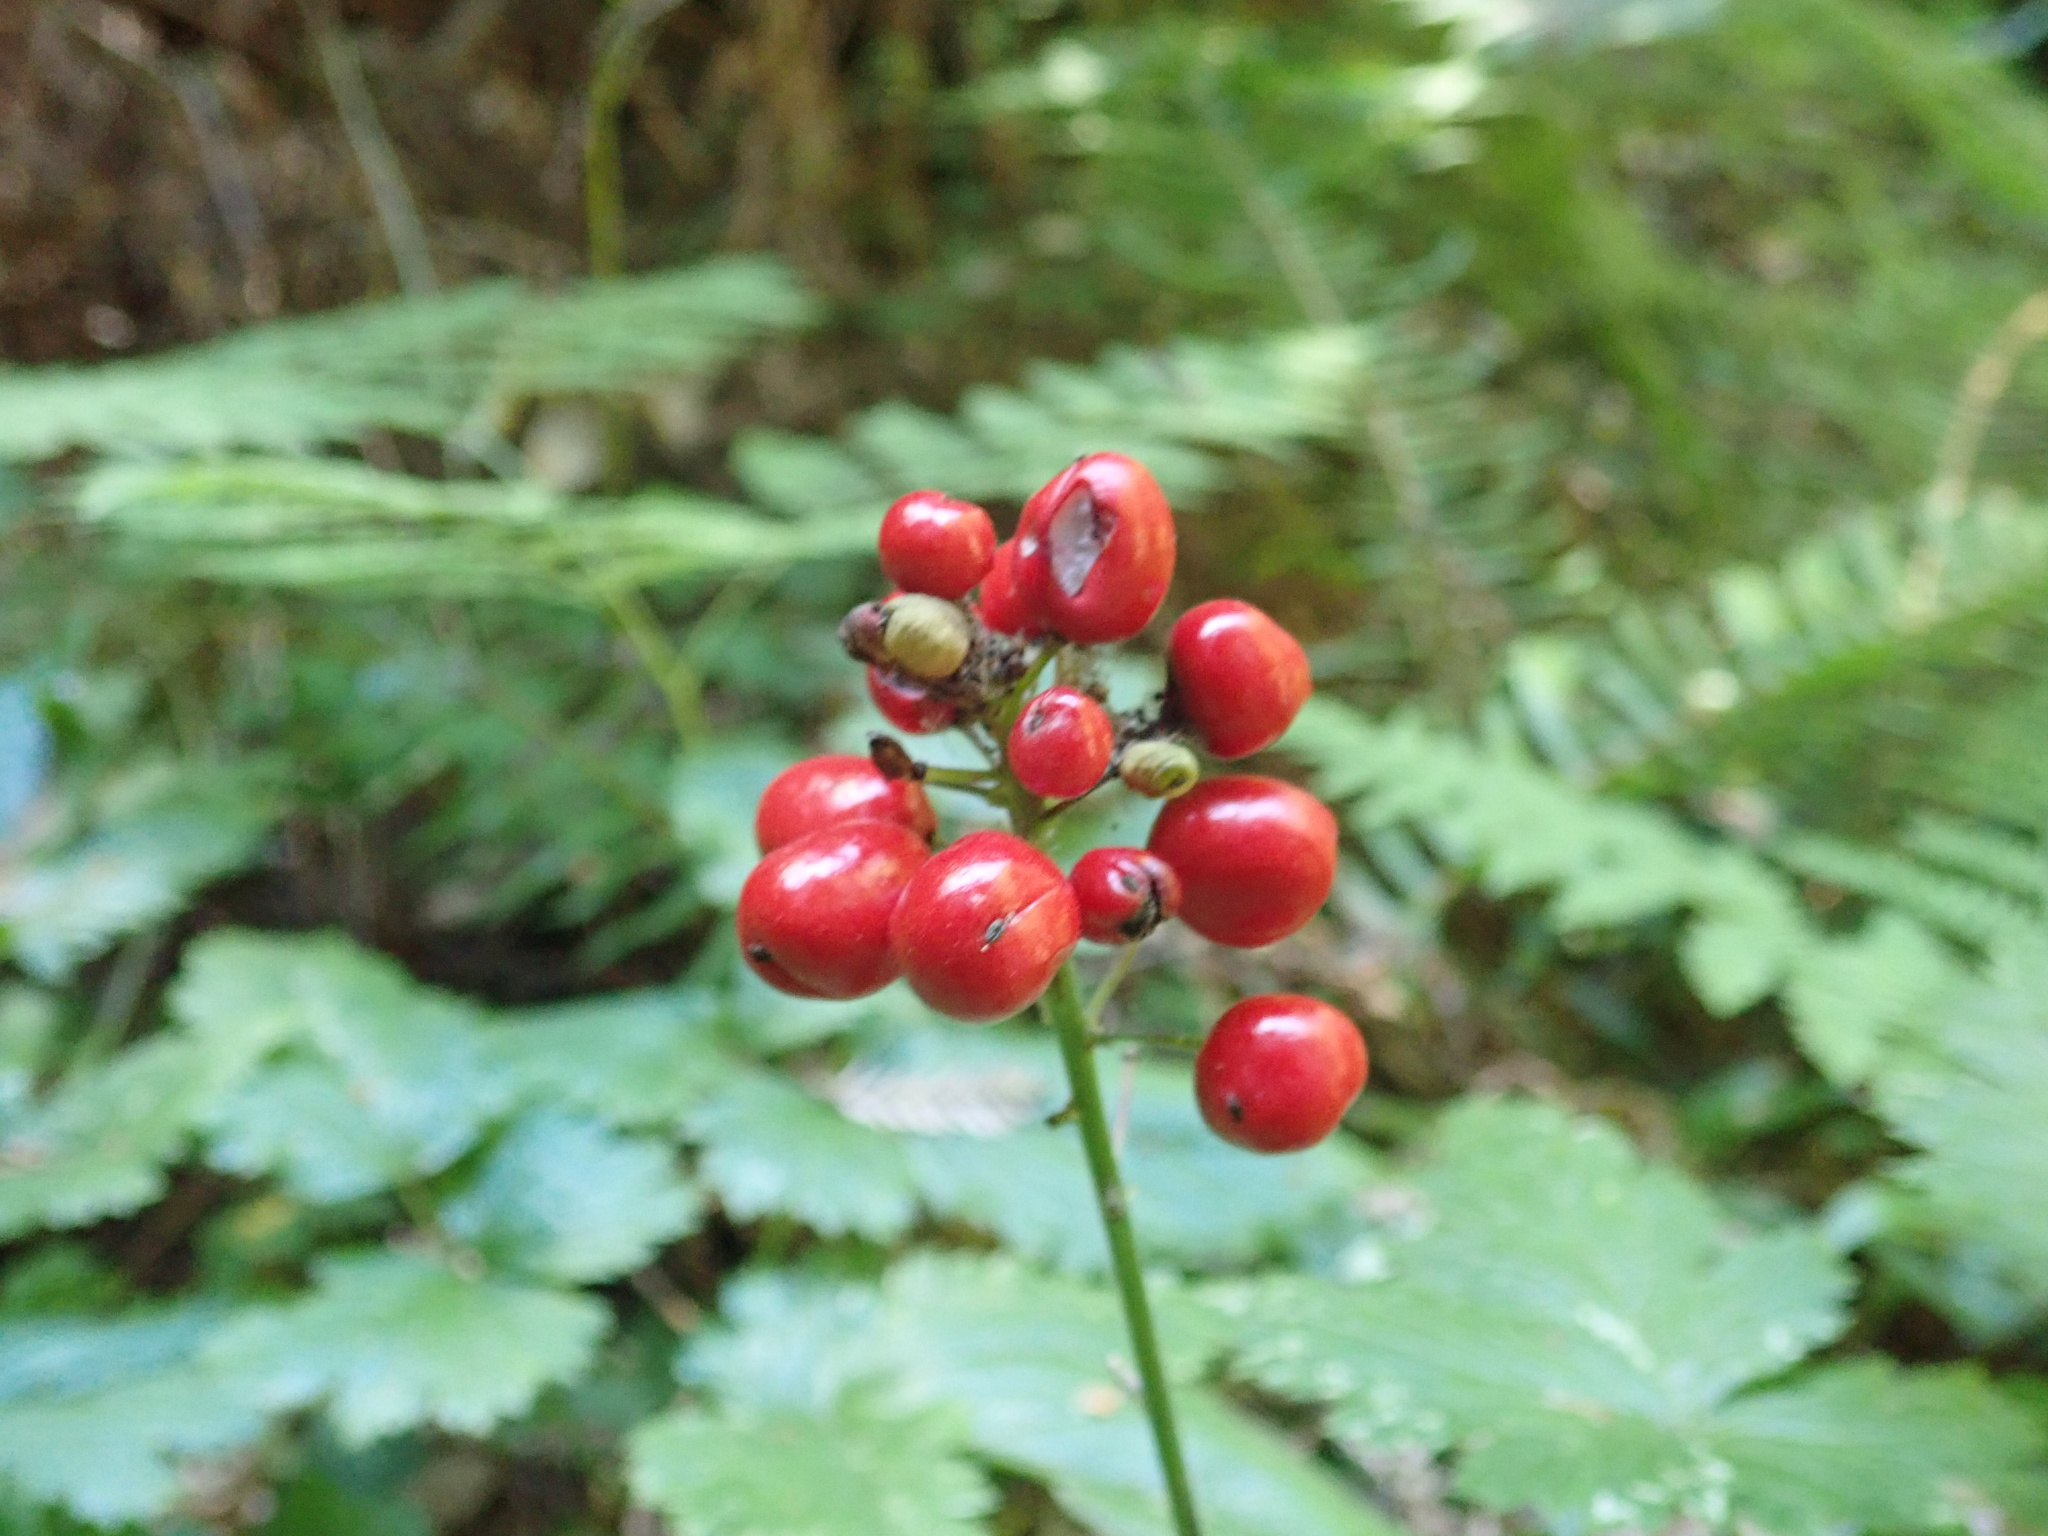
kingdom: Plantae
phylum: Tracheophyta
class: Magnoliopsida
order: Ranunculales
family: Ranunculaceae
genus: Actaea
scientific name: Actaea rubra
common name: Red baneberry
